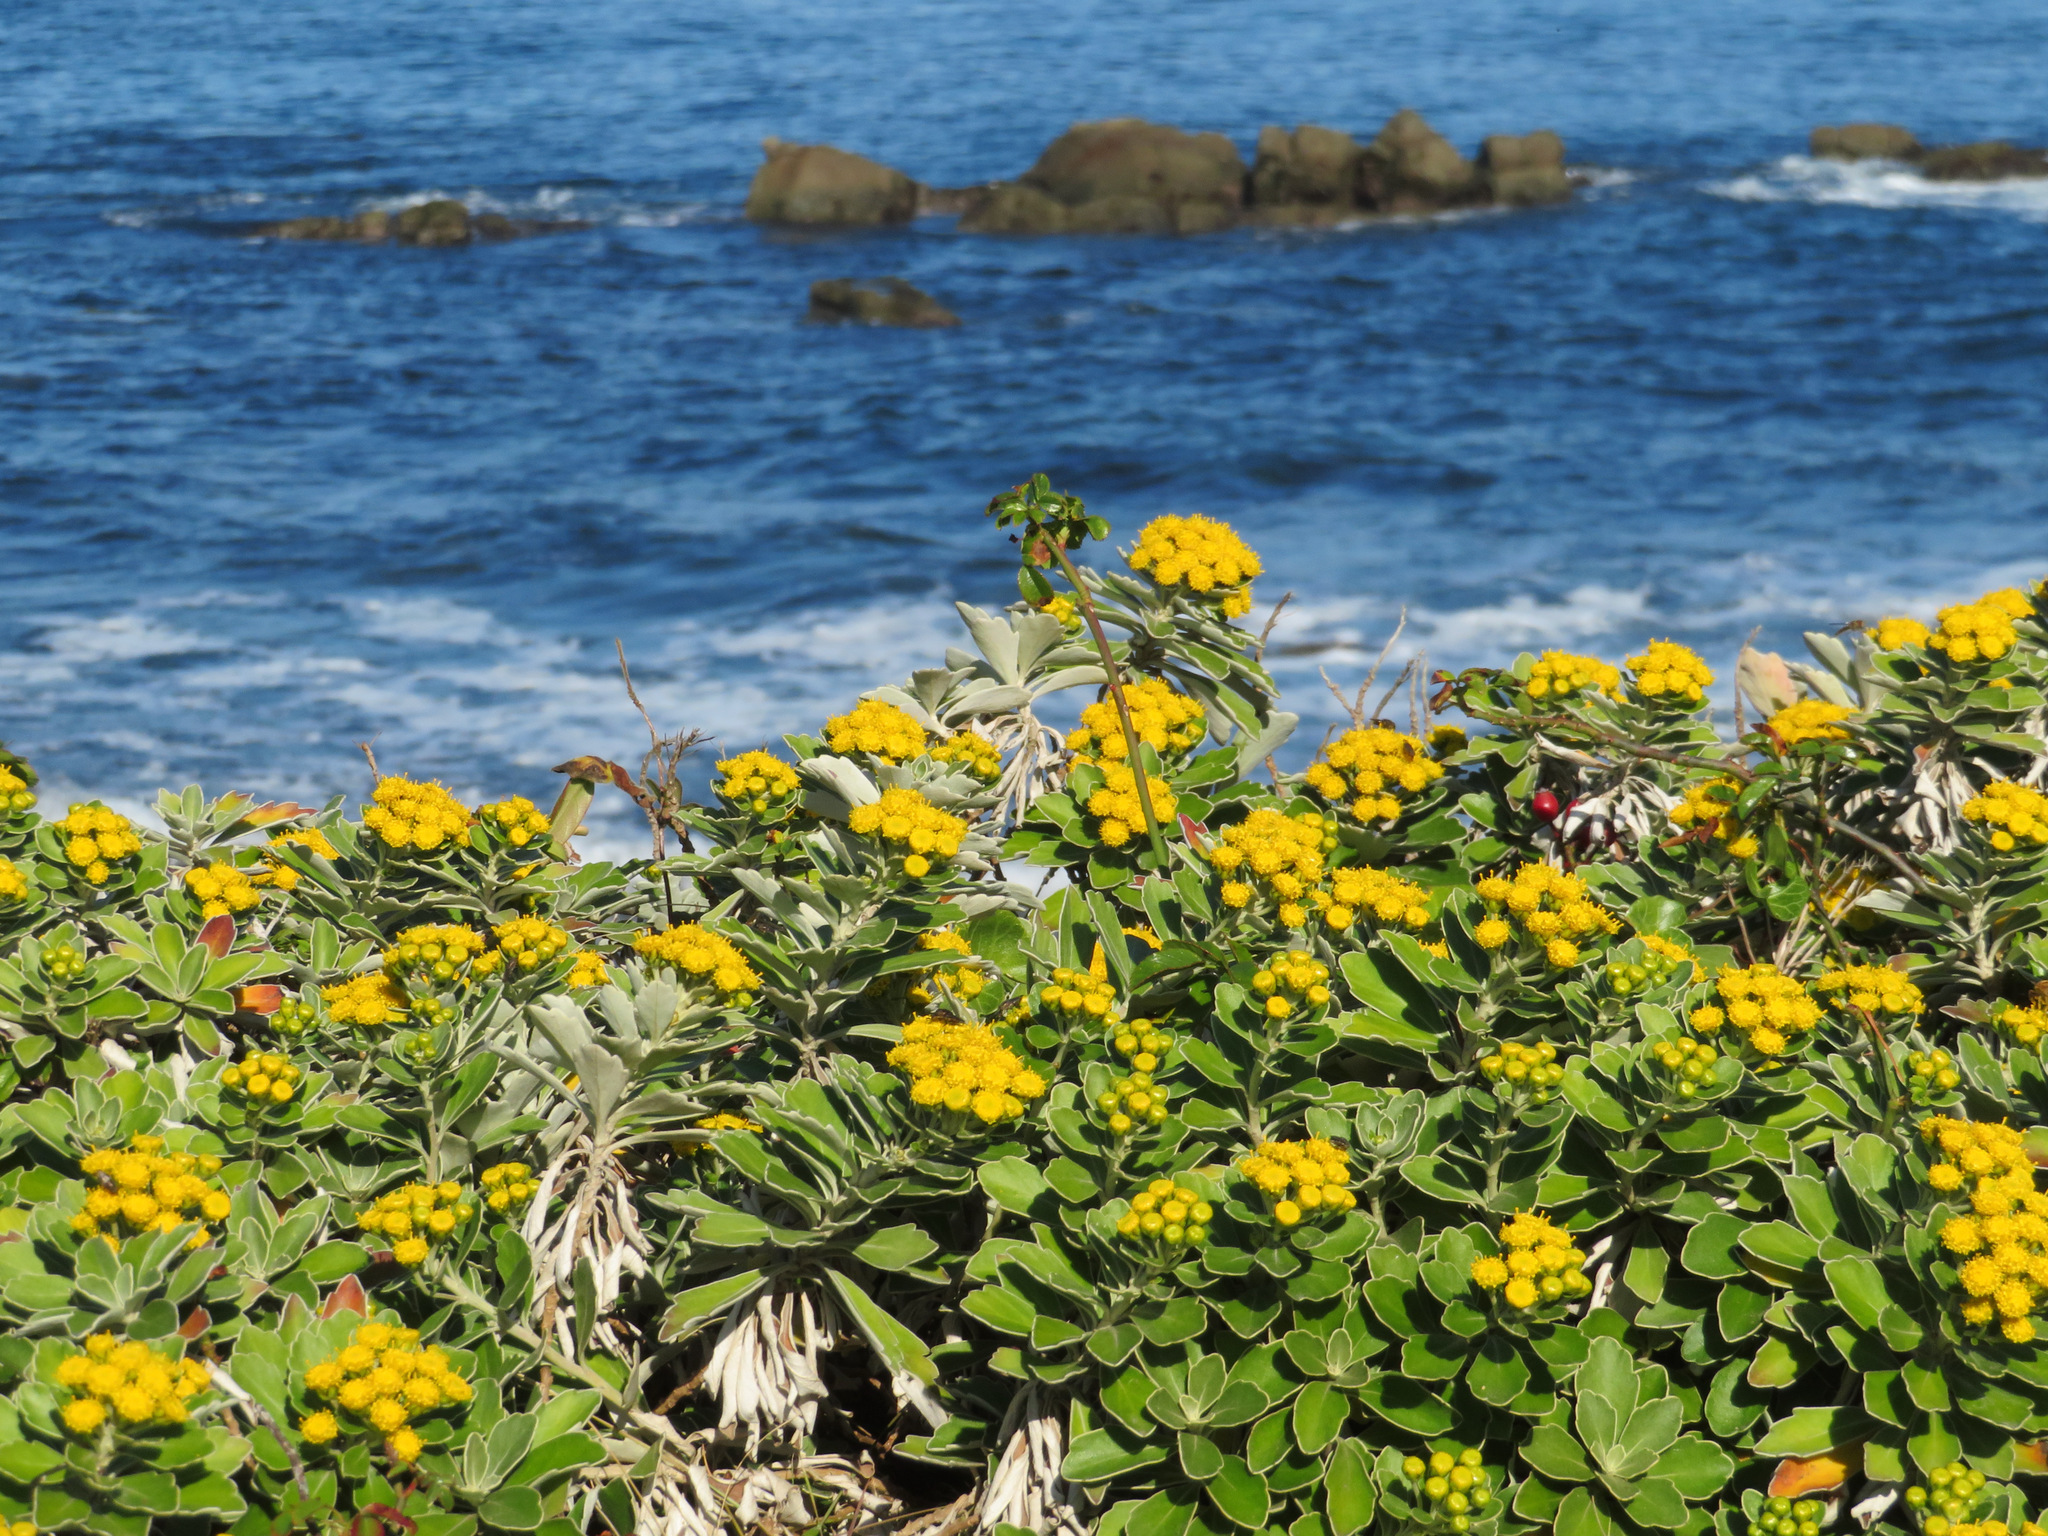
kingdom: Plantae
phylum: Tracheophyta
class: Magnoliopsida
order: Asterales
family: Asteraceae
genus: Ajania
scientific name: Ajania pacifica
